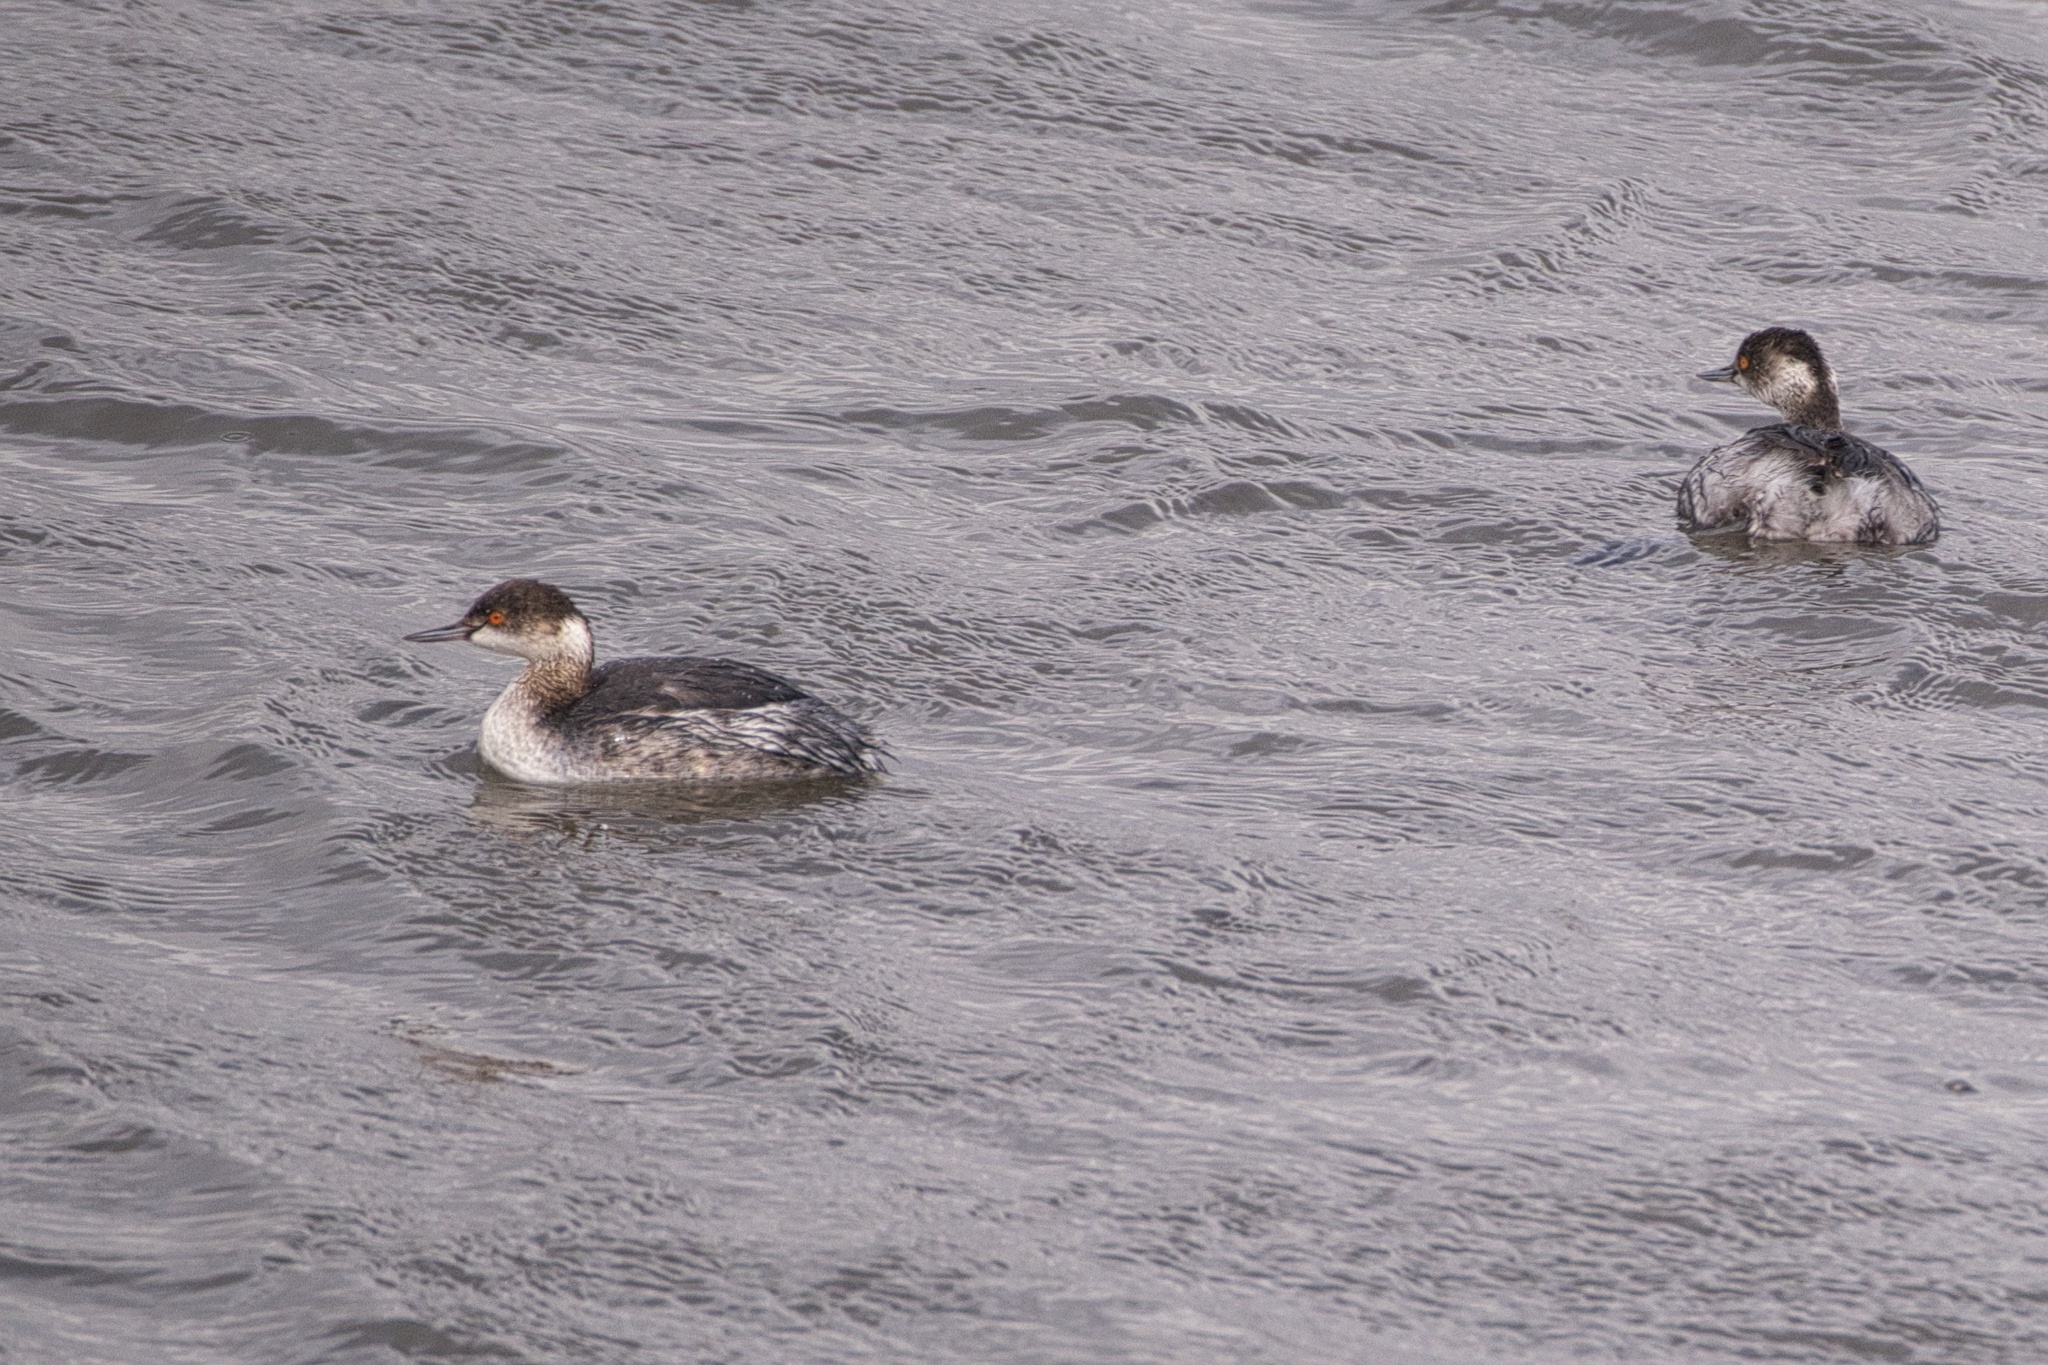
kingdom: Animalia
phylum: Chordata
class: Aves
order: Podicipediformes
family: Podicipedidae
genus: Podiceps
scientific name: Podiceps nigricollis
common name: Black-necked grebe
